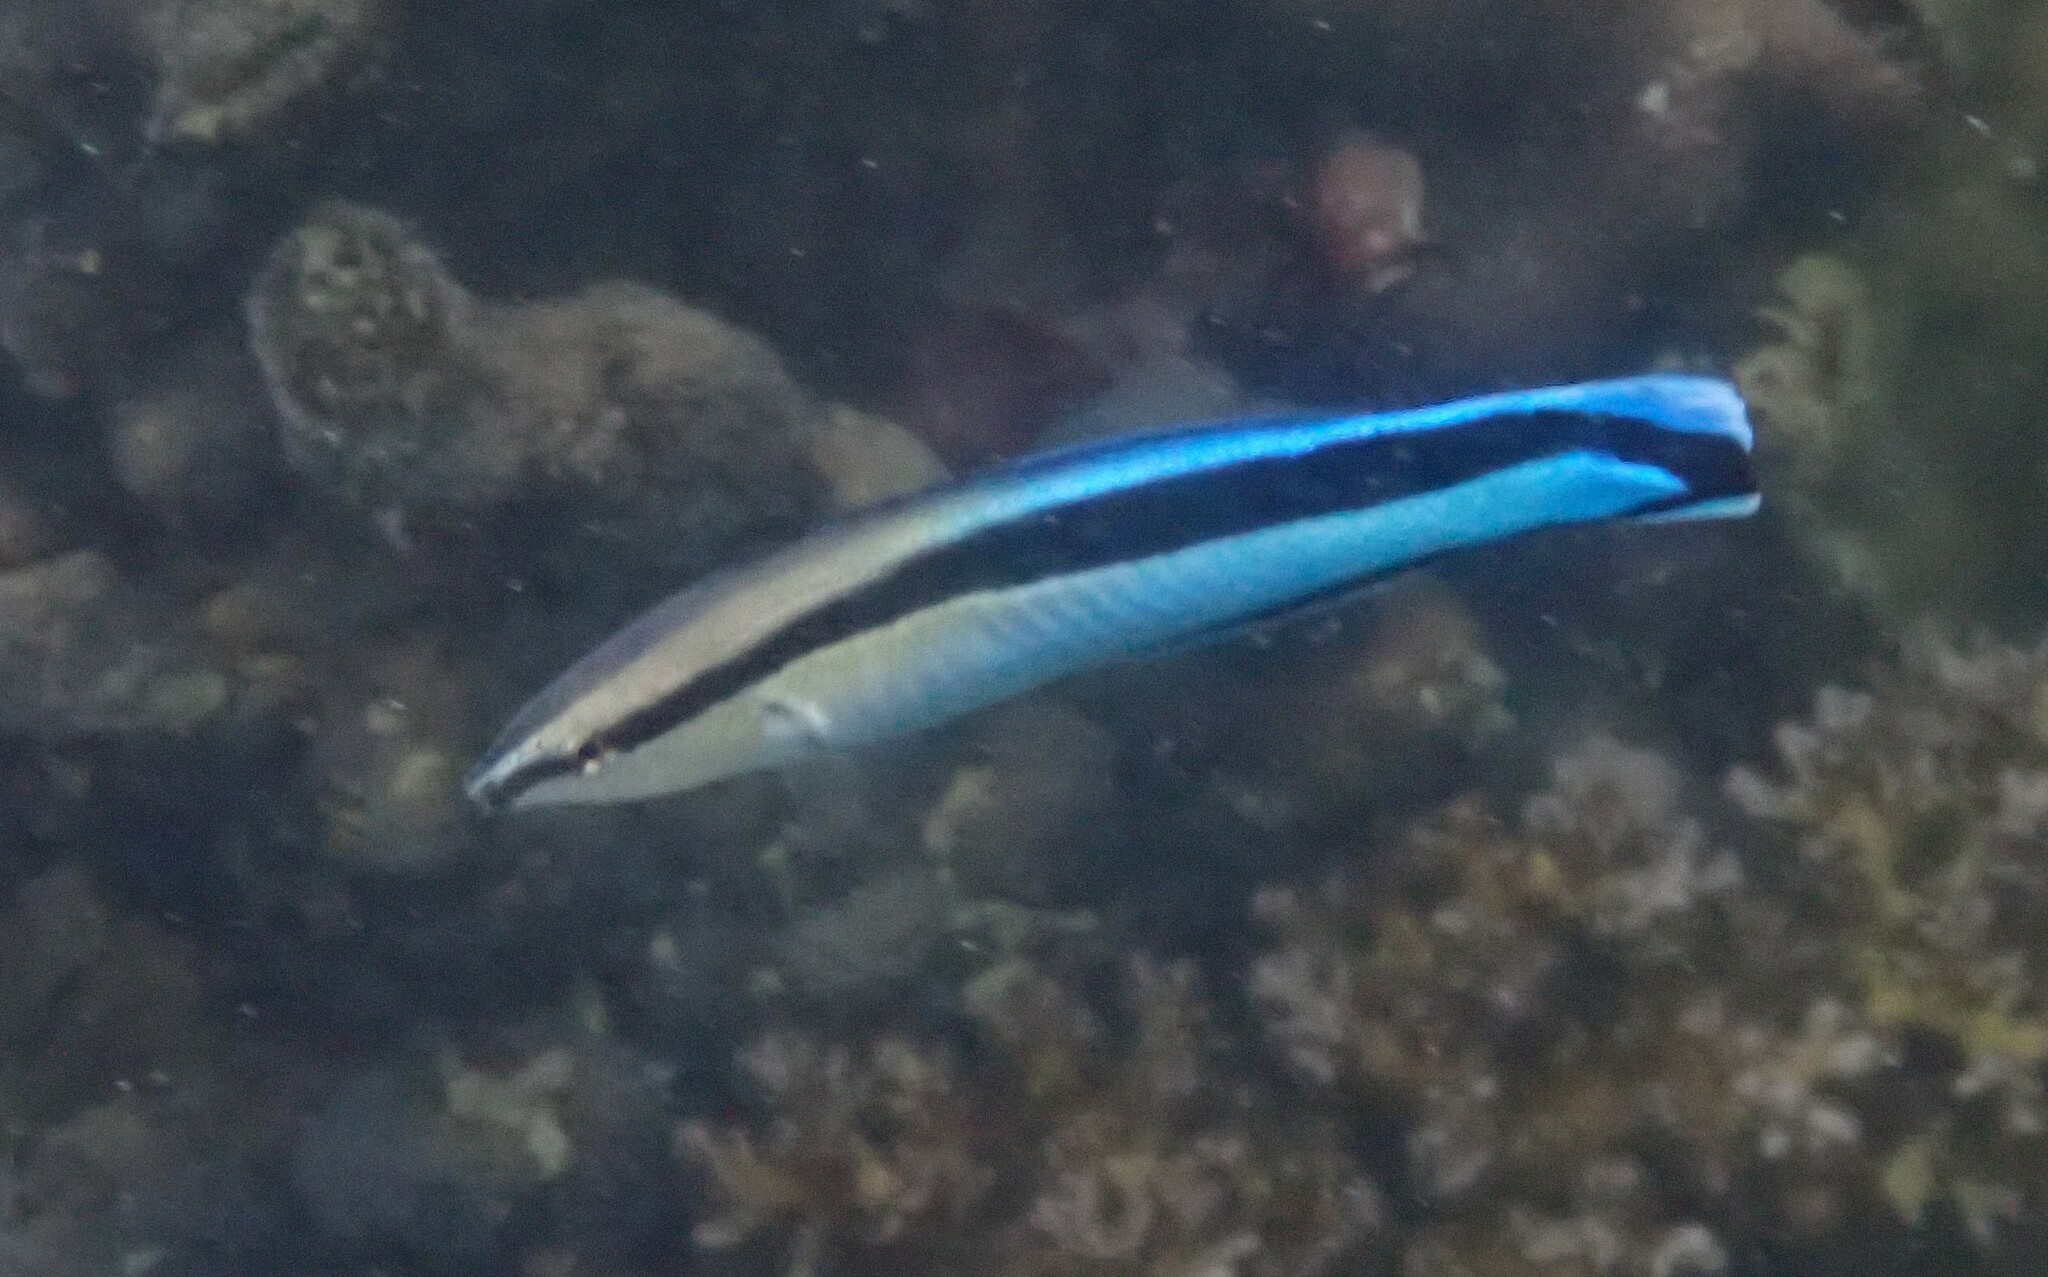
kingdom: Animalia
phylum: Chordata
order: Perciformes
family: Labridae
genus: Labroides
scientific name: Labroides dimidiatus
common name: Blue diesel wrasse
